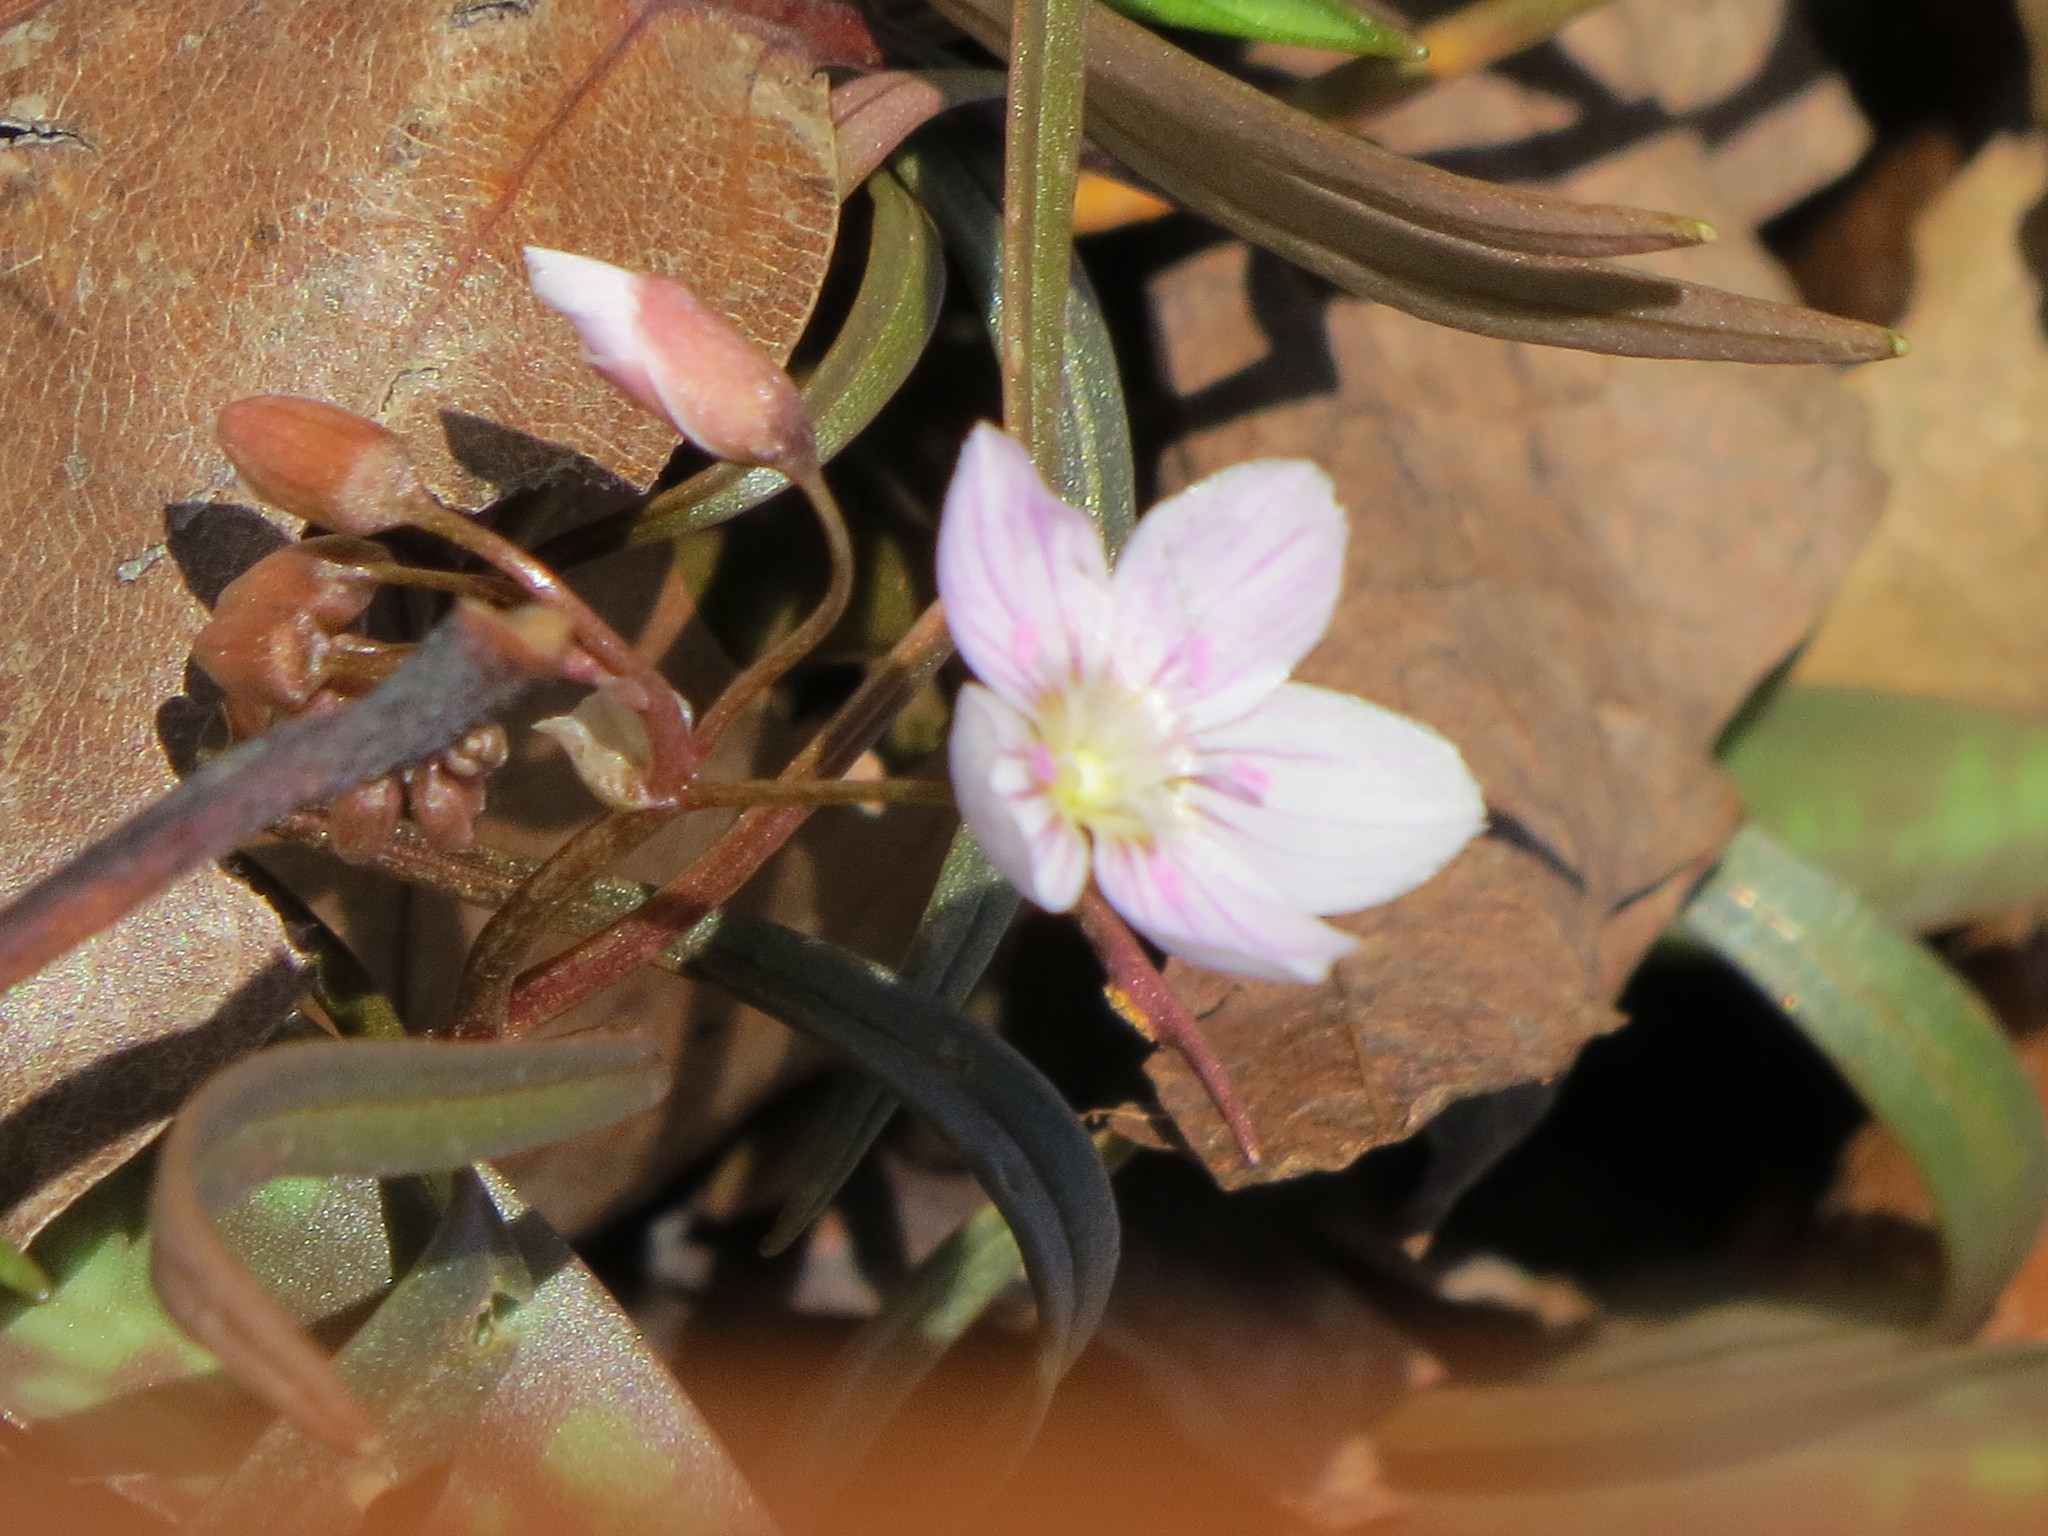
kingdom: Plantae
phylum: Tracheophyta
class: Magnoliopsida
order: Caryophyllales
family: Montiaceae
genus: Claytonia
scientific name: Claytonia virginica
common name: Virginia springbeauty
